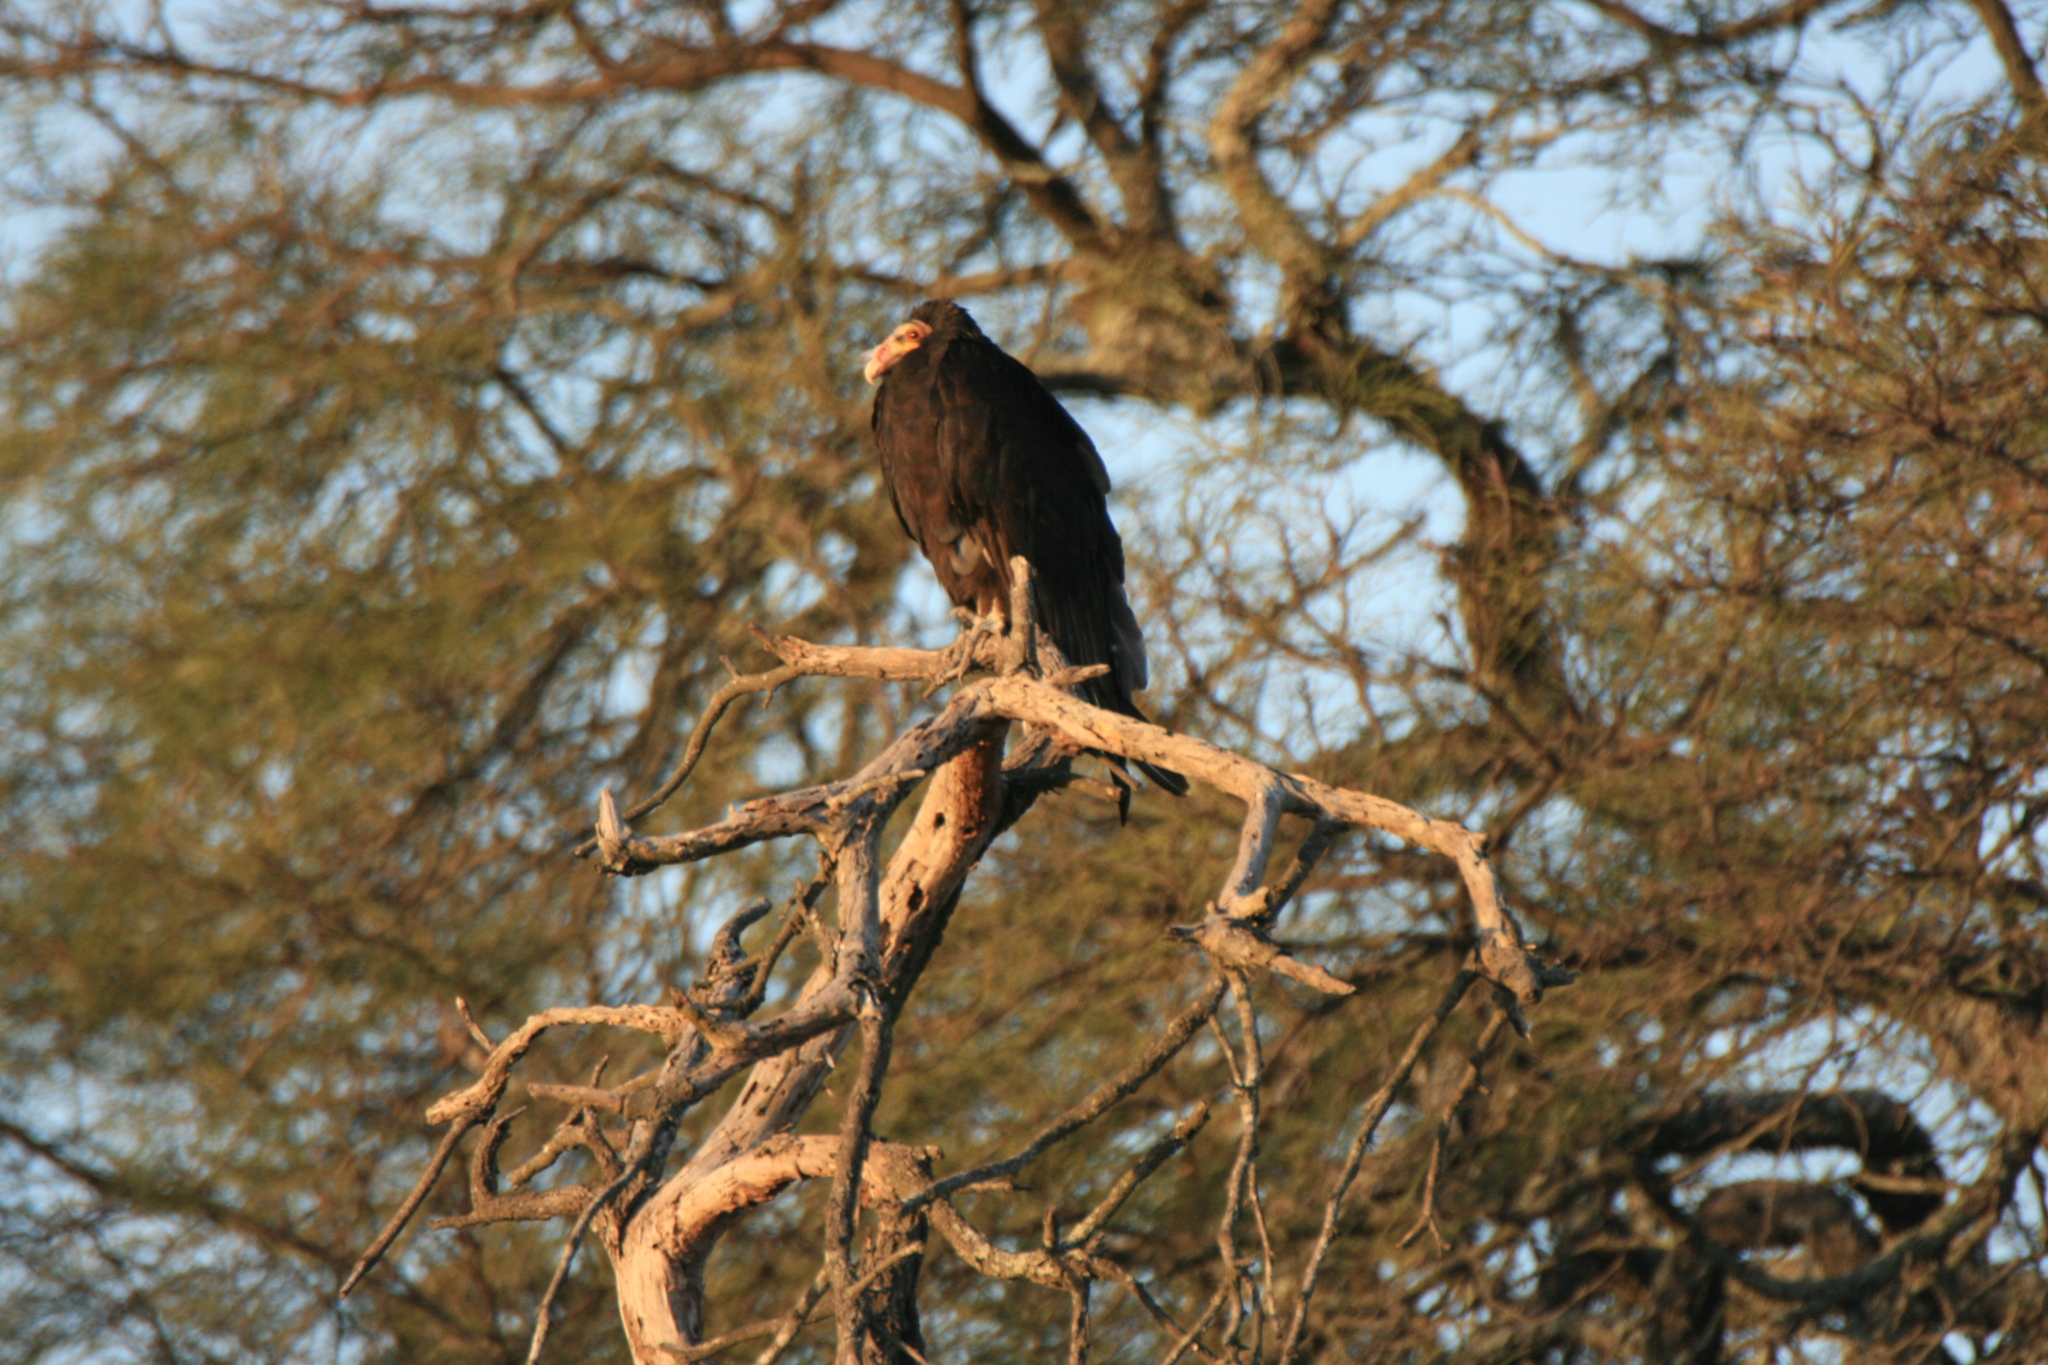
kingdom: Animalia
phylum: Chordata
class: Aves
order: Accipitriformes
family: Cathartidae
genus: Cathartes
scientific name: Cathartes burrovianus
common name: Lesser yellow-headed vulture
